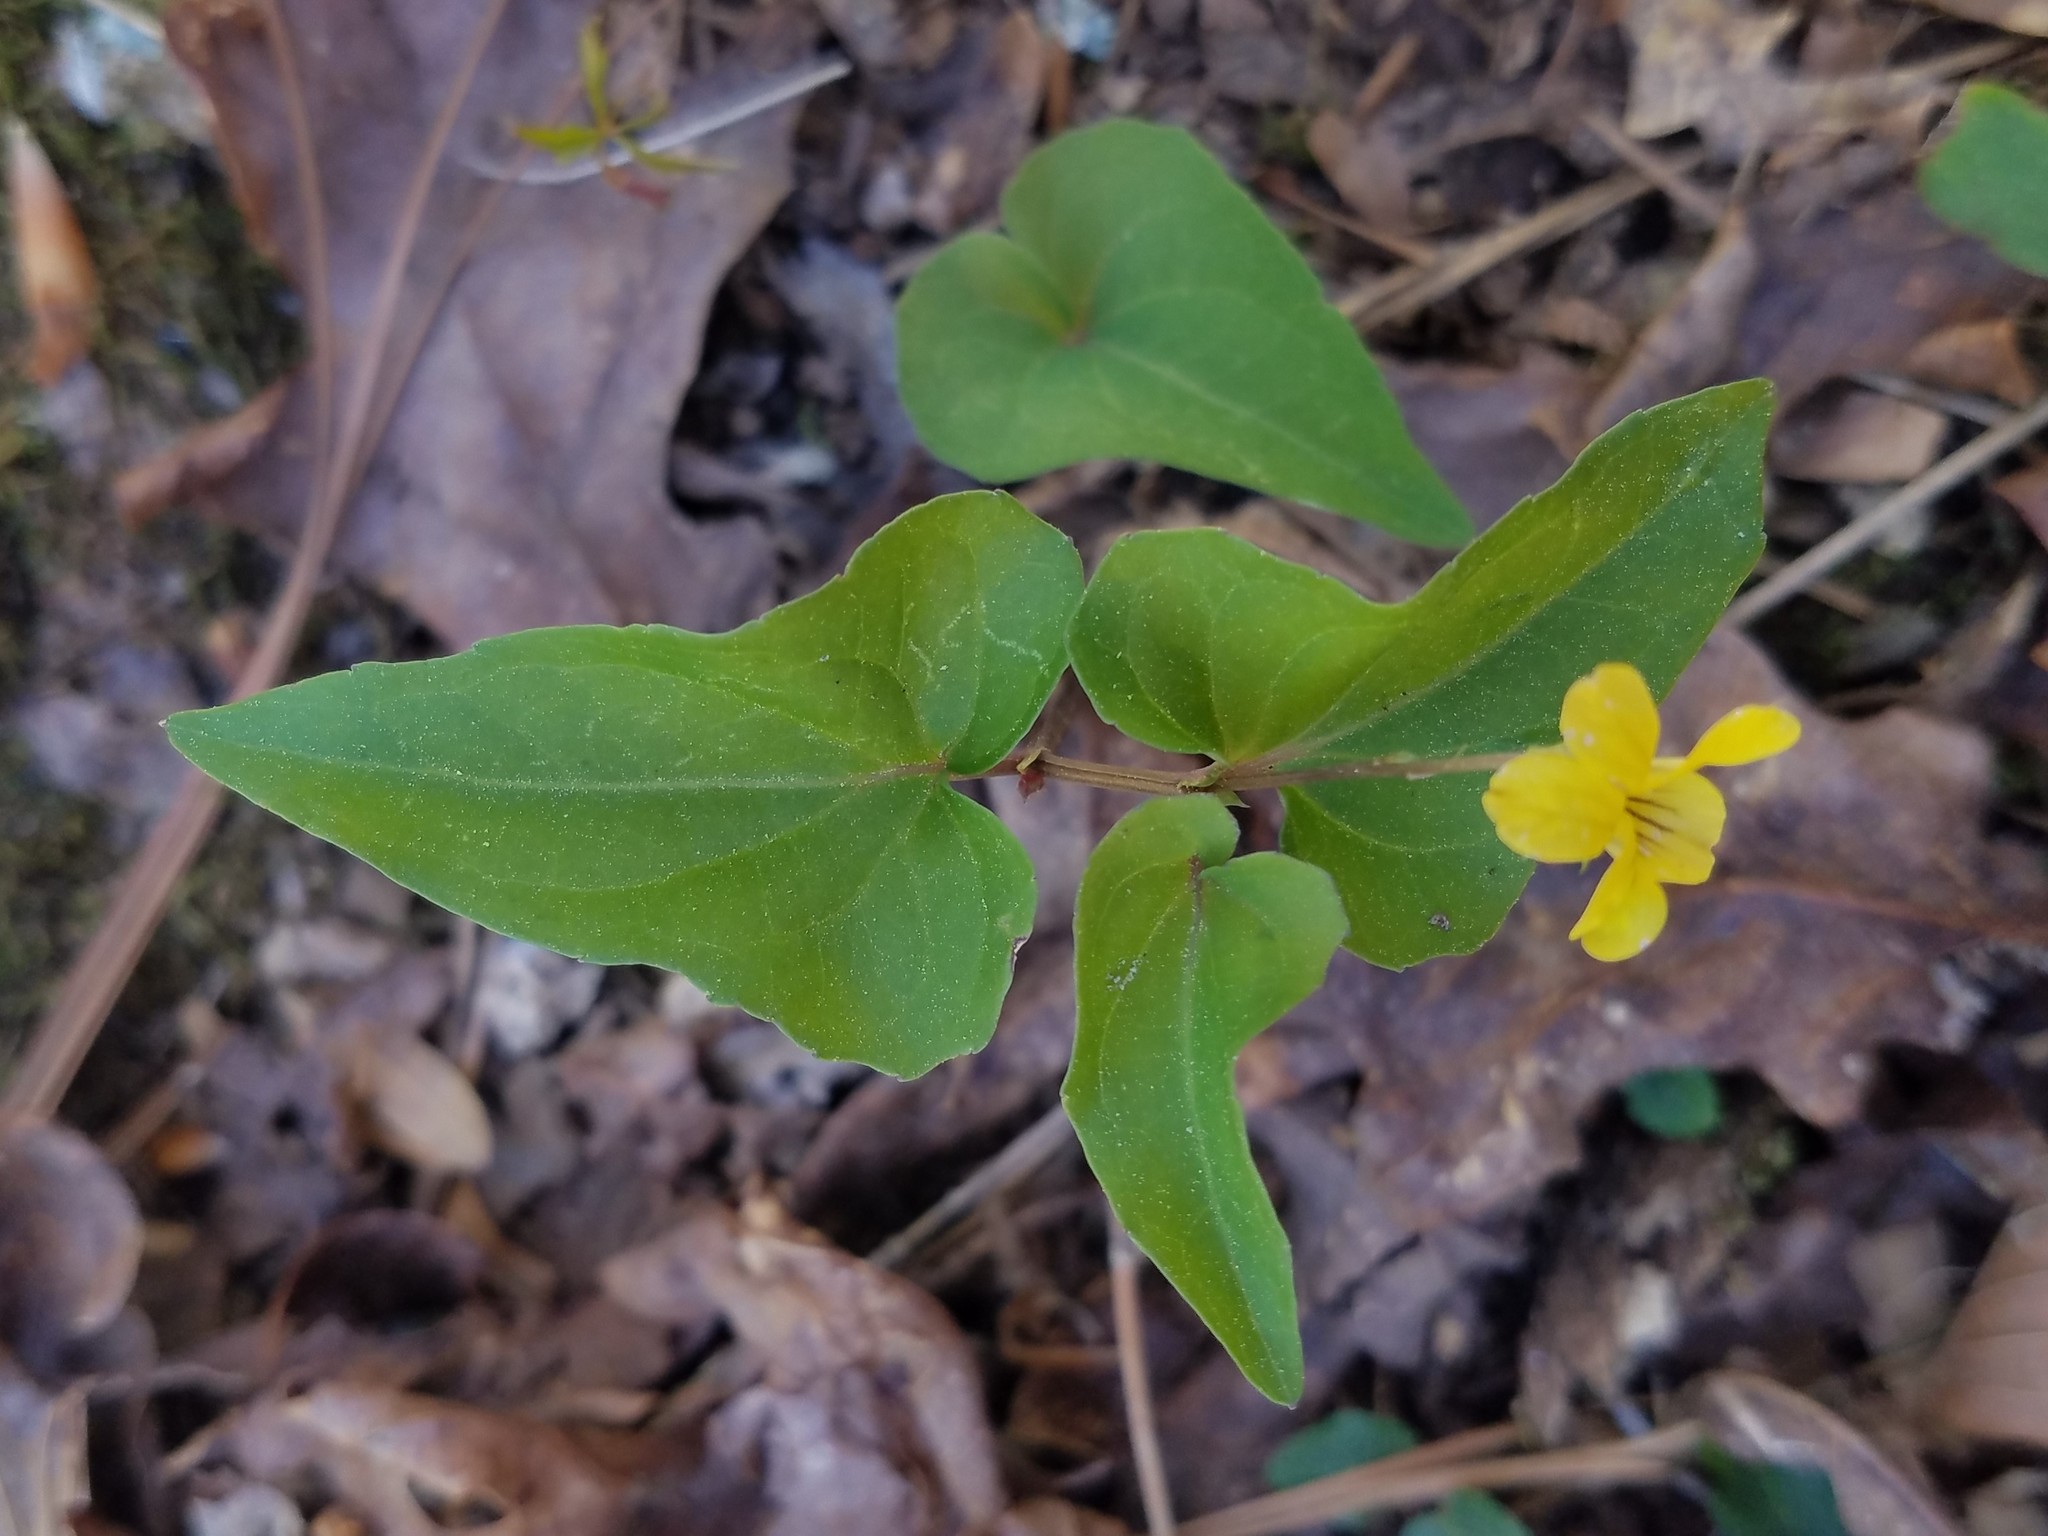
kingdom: Plantae
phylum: Tracheophyta
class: Magnoliopsida
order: Malpighiales
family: Violaceae
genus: Viola
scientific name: Viola hastata
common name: Spear-leaf violet
